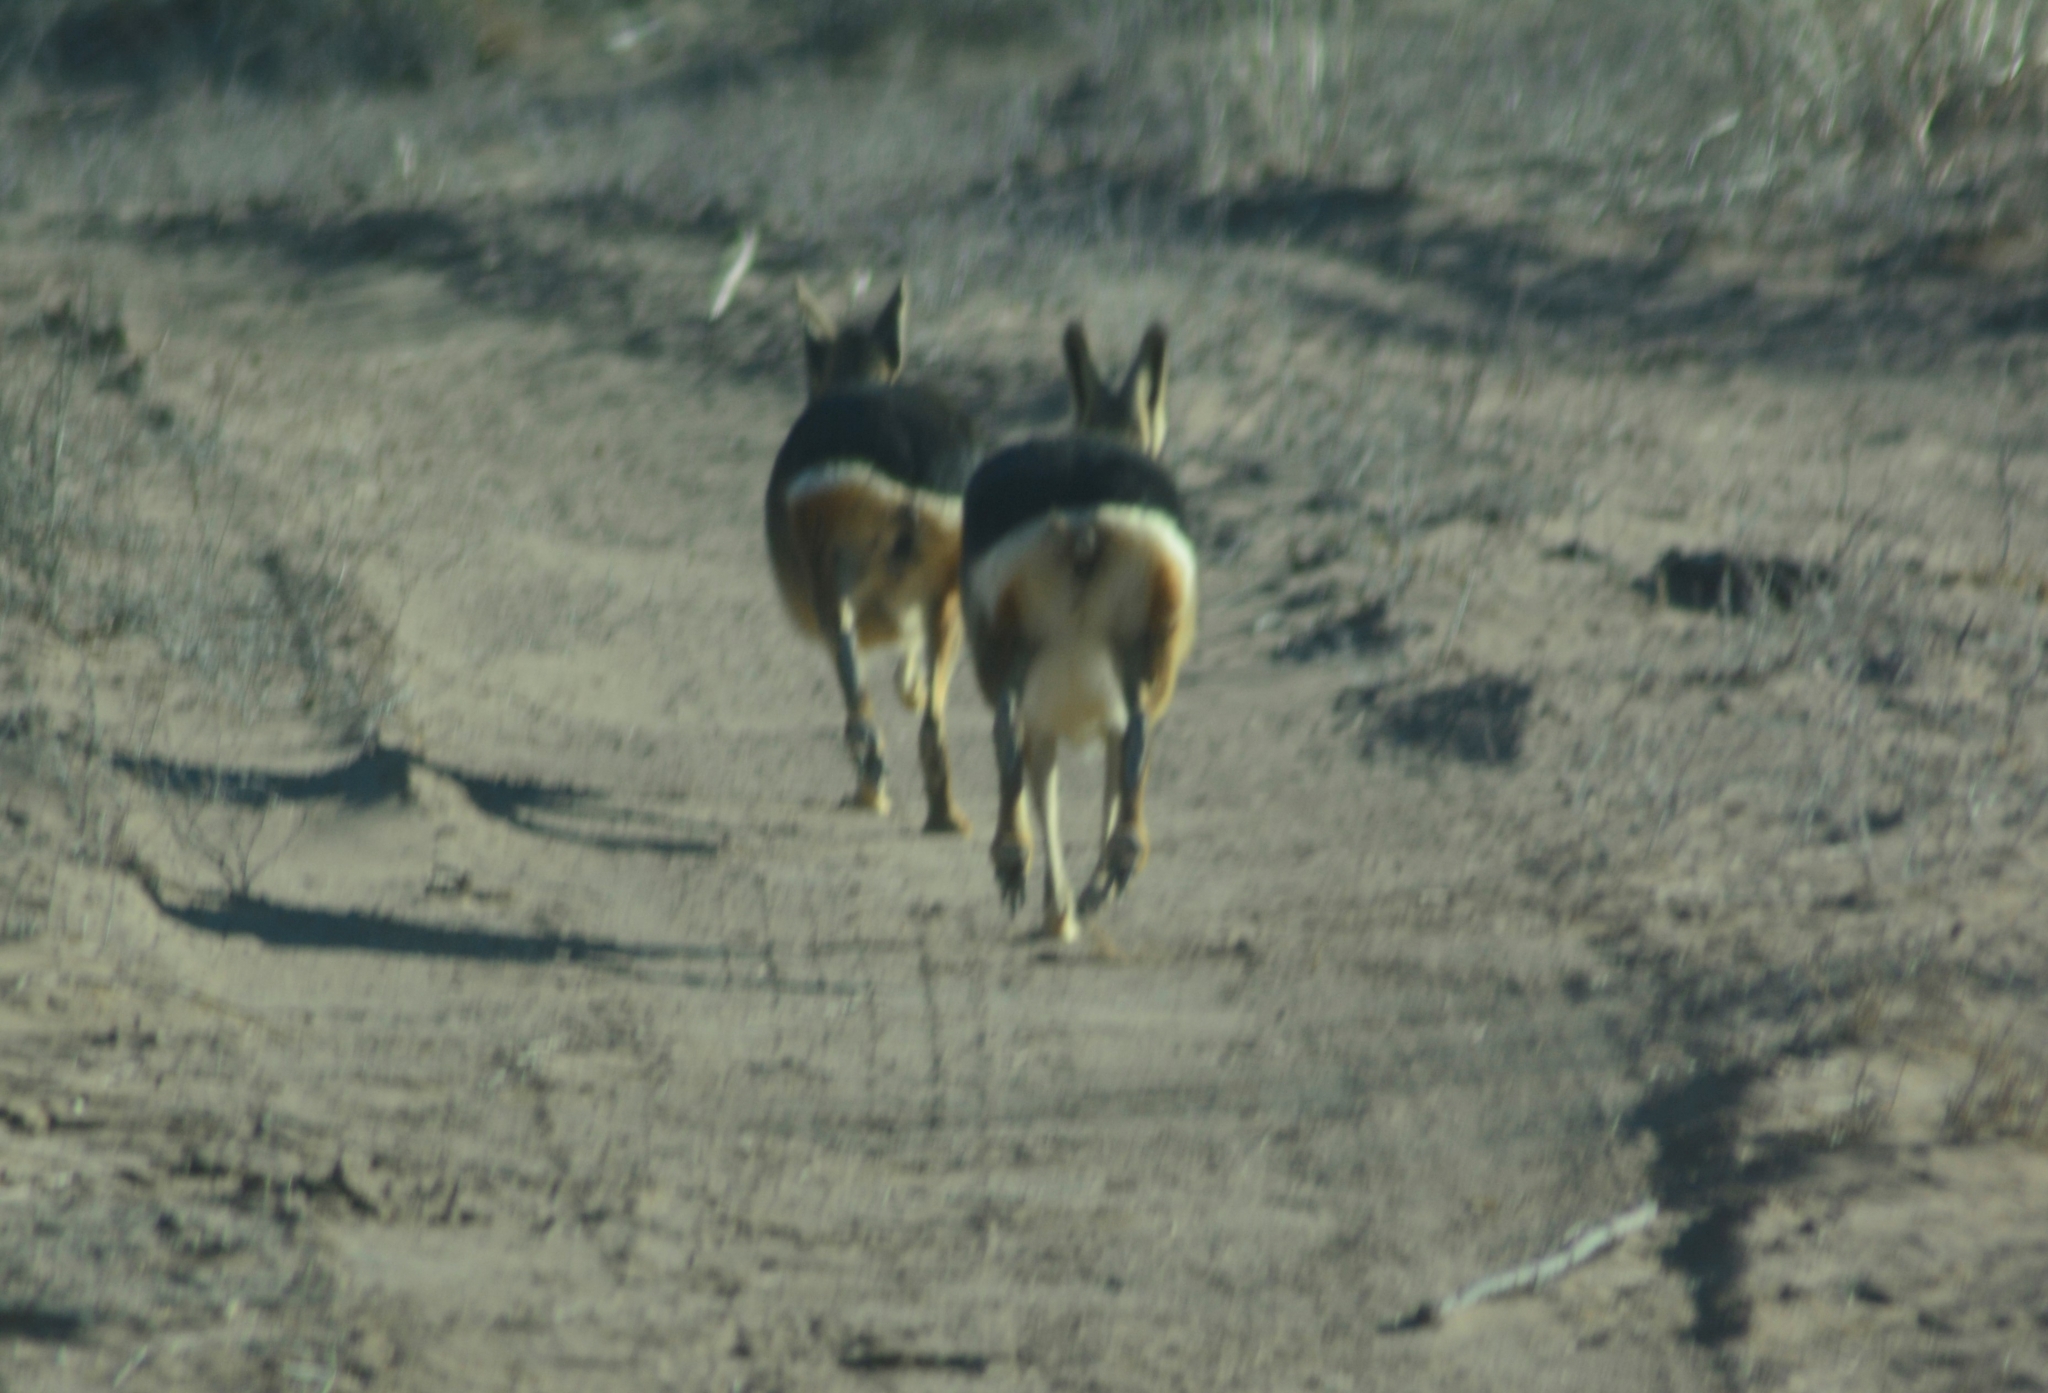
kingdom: Animalia
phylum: Chordata
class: Mammalia
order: Rodentia
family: Caviidae
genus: Dolichotis
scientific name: Dolichotis patagonum
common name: Patagonian mara
